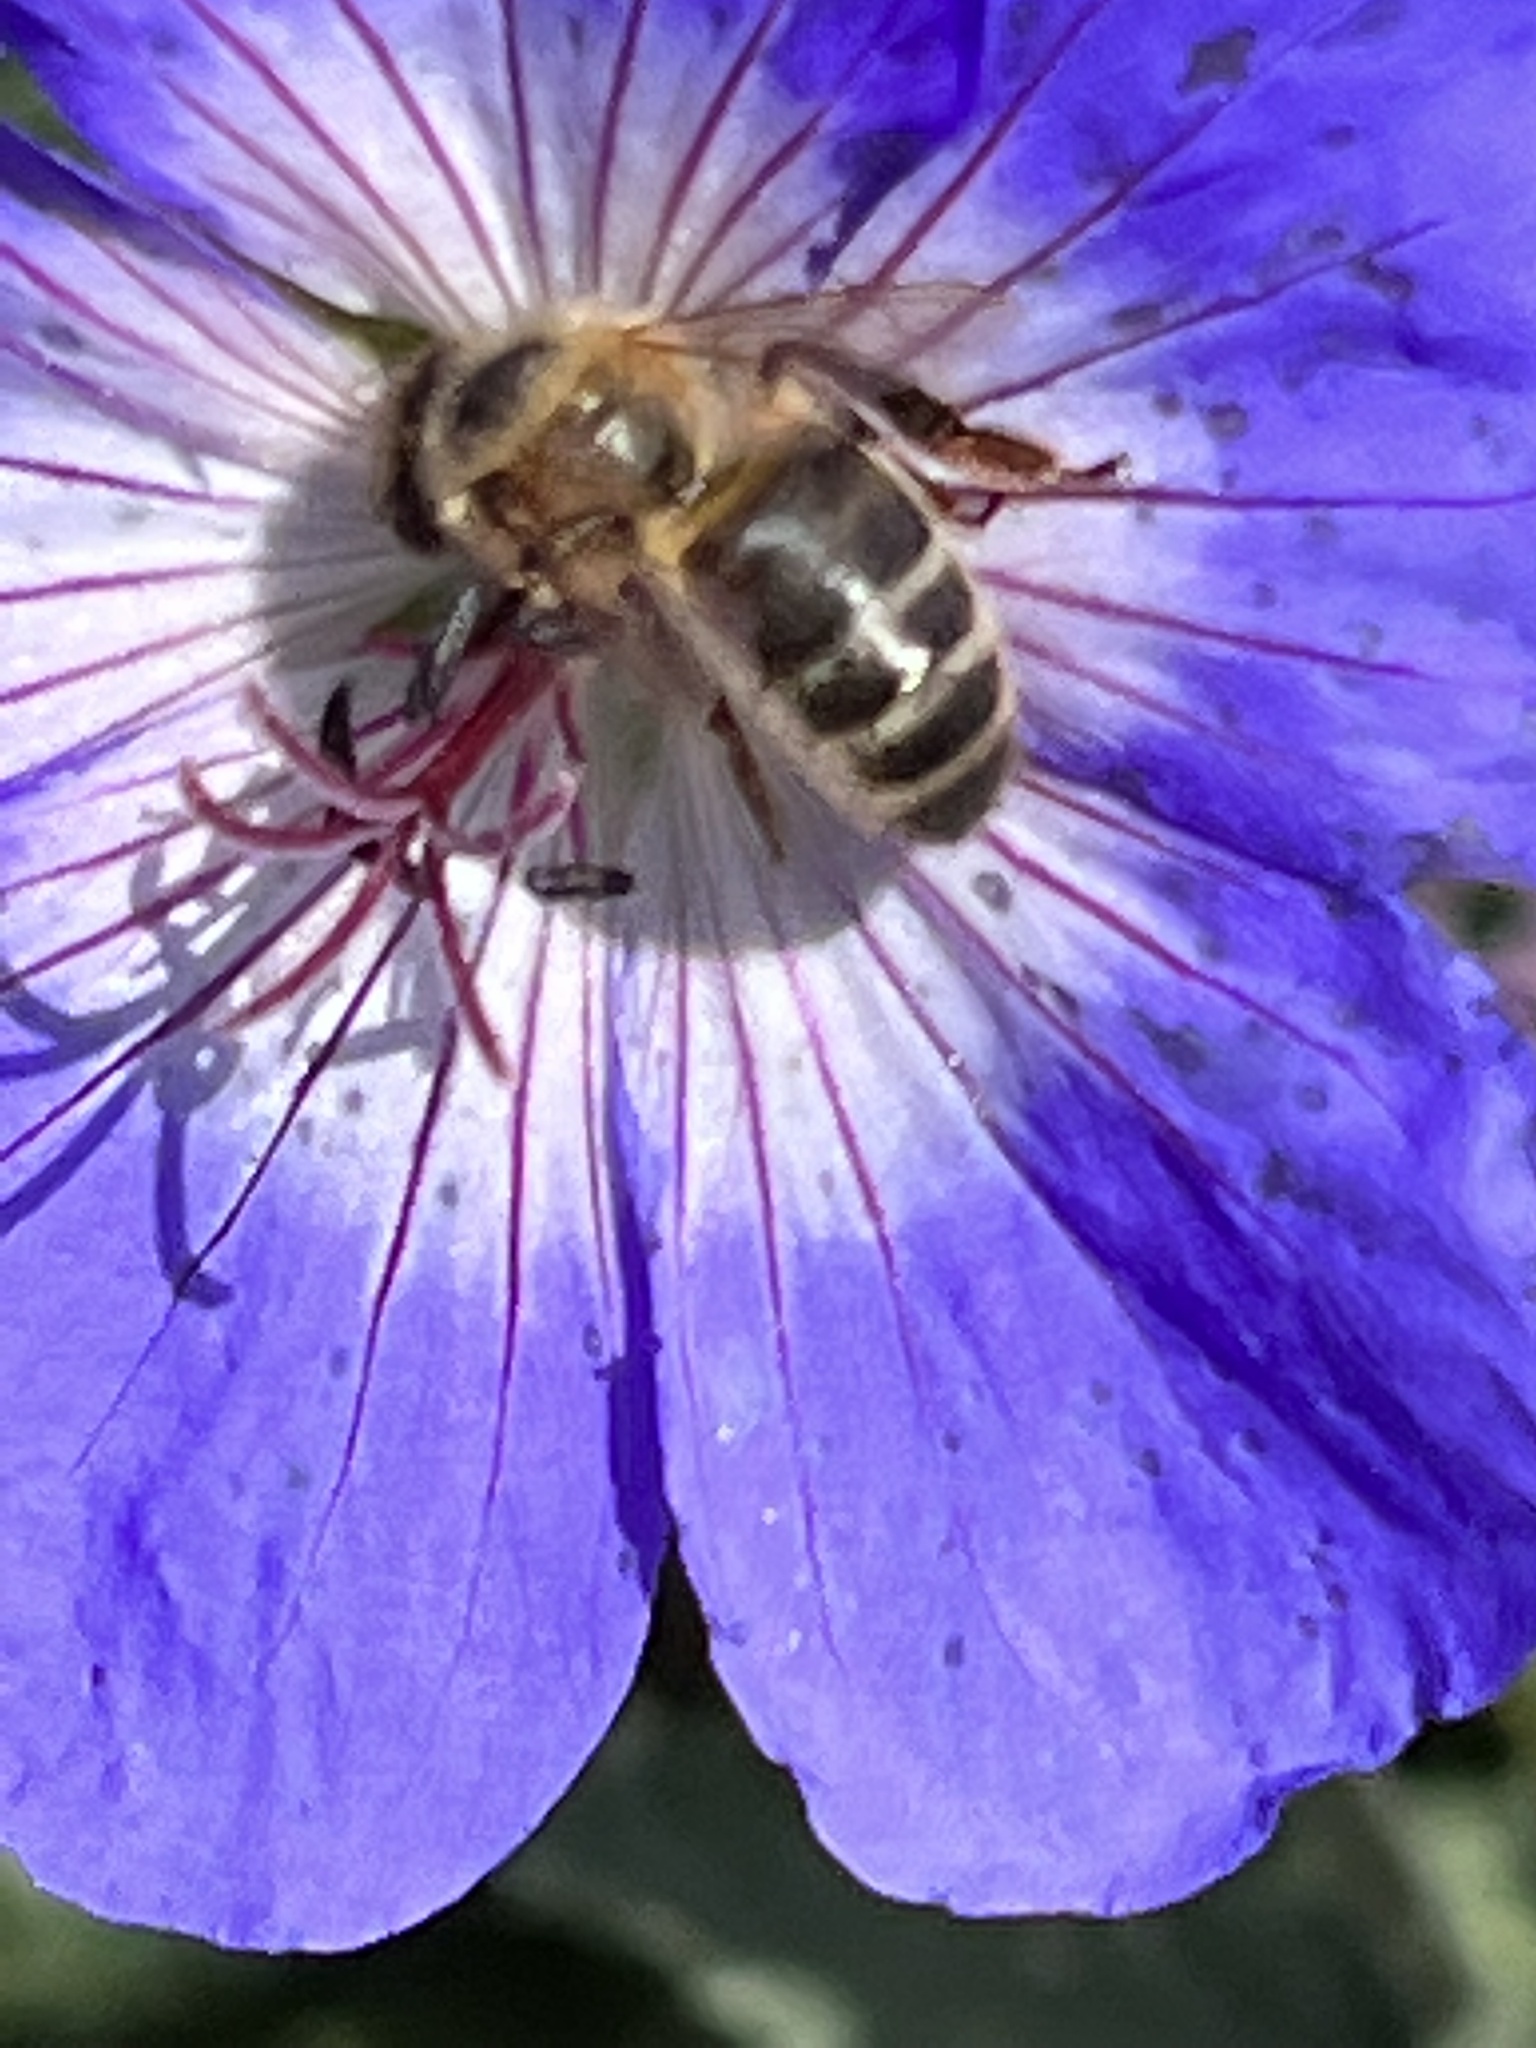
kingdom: Animalia
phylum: Arthropoda
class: Insecta
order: Hymenoptera
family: Apidae
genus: Apis
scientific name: Apis mellifera
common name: Honey bee
